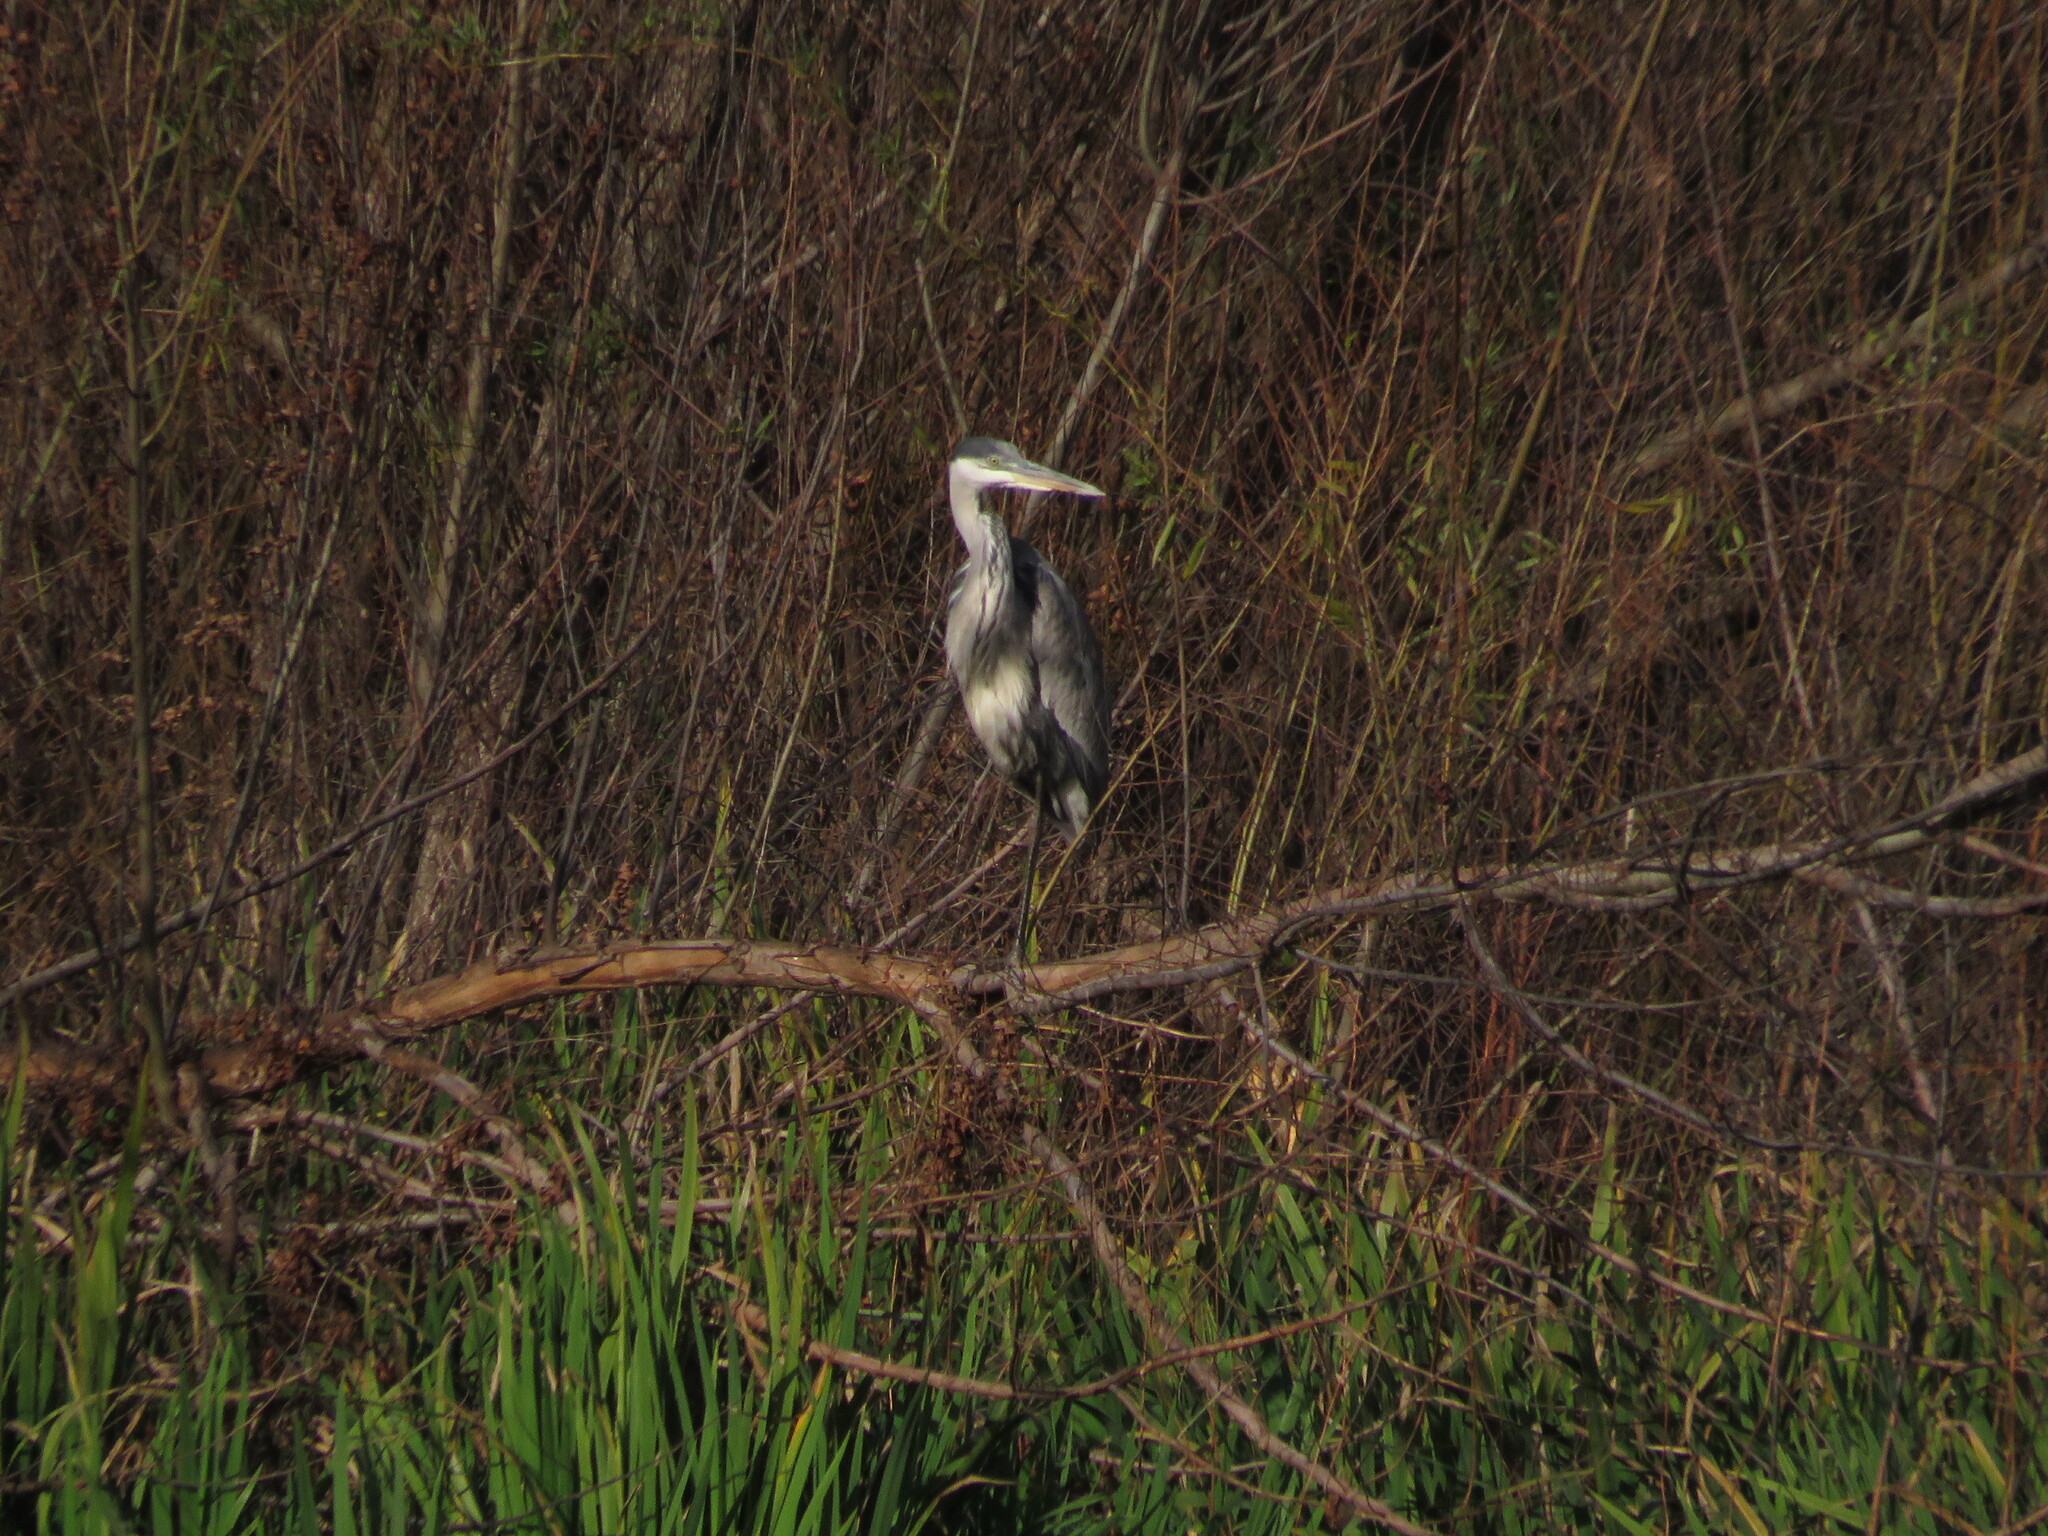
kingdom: Animalia
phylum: Chordata
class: Aves
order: Pelecaniformes
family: Ardeidae
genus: Ardea
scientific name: Ardea cocoi
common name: Cocoi heron
